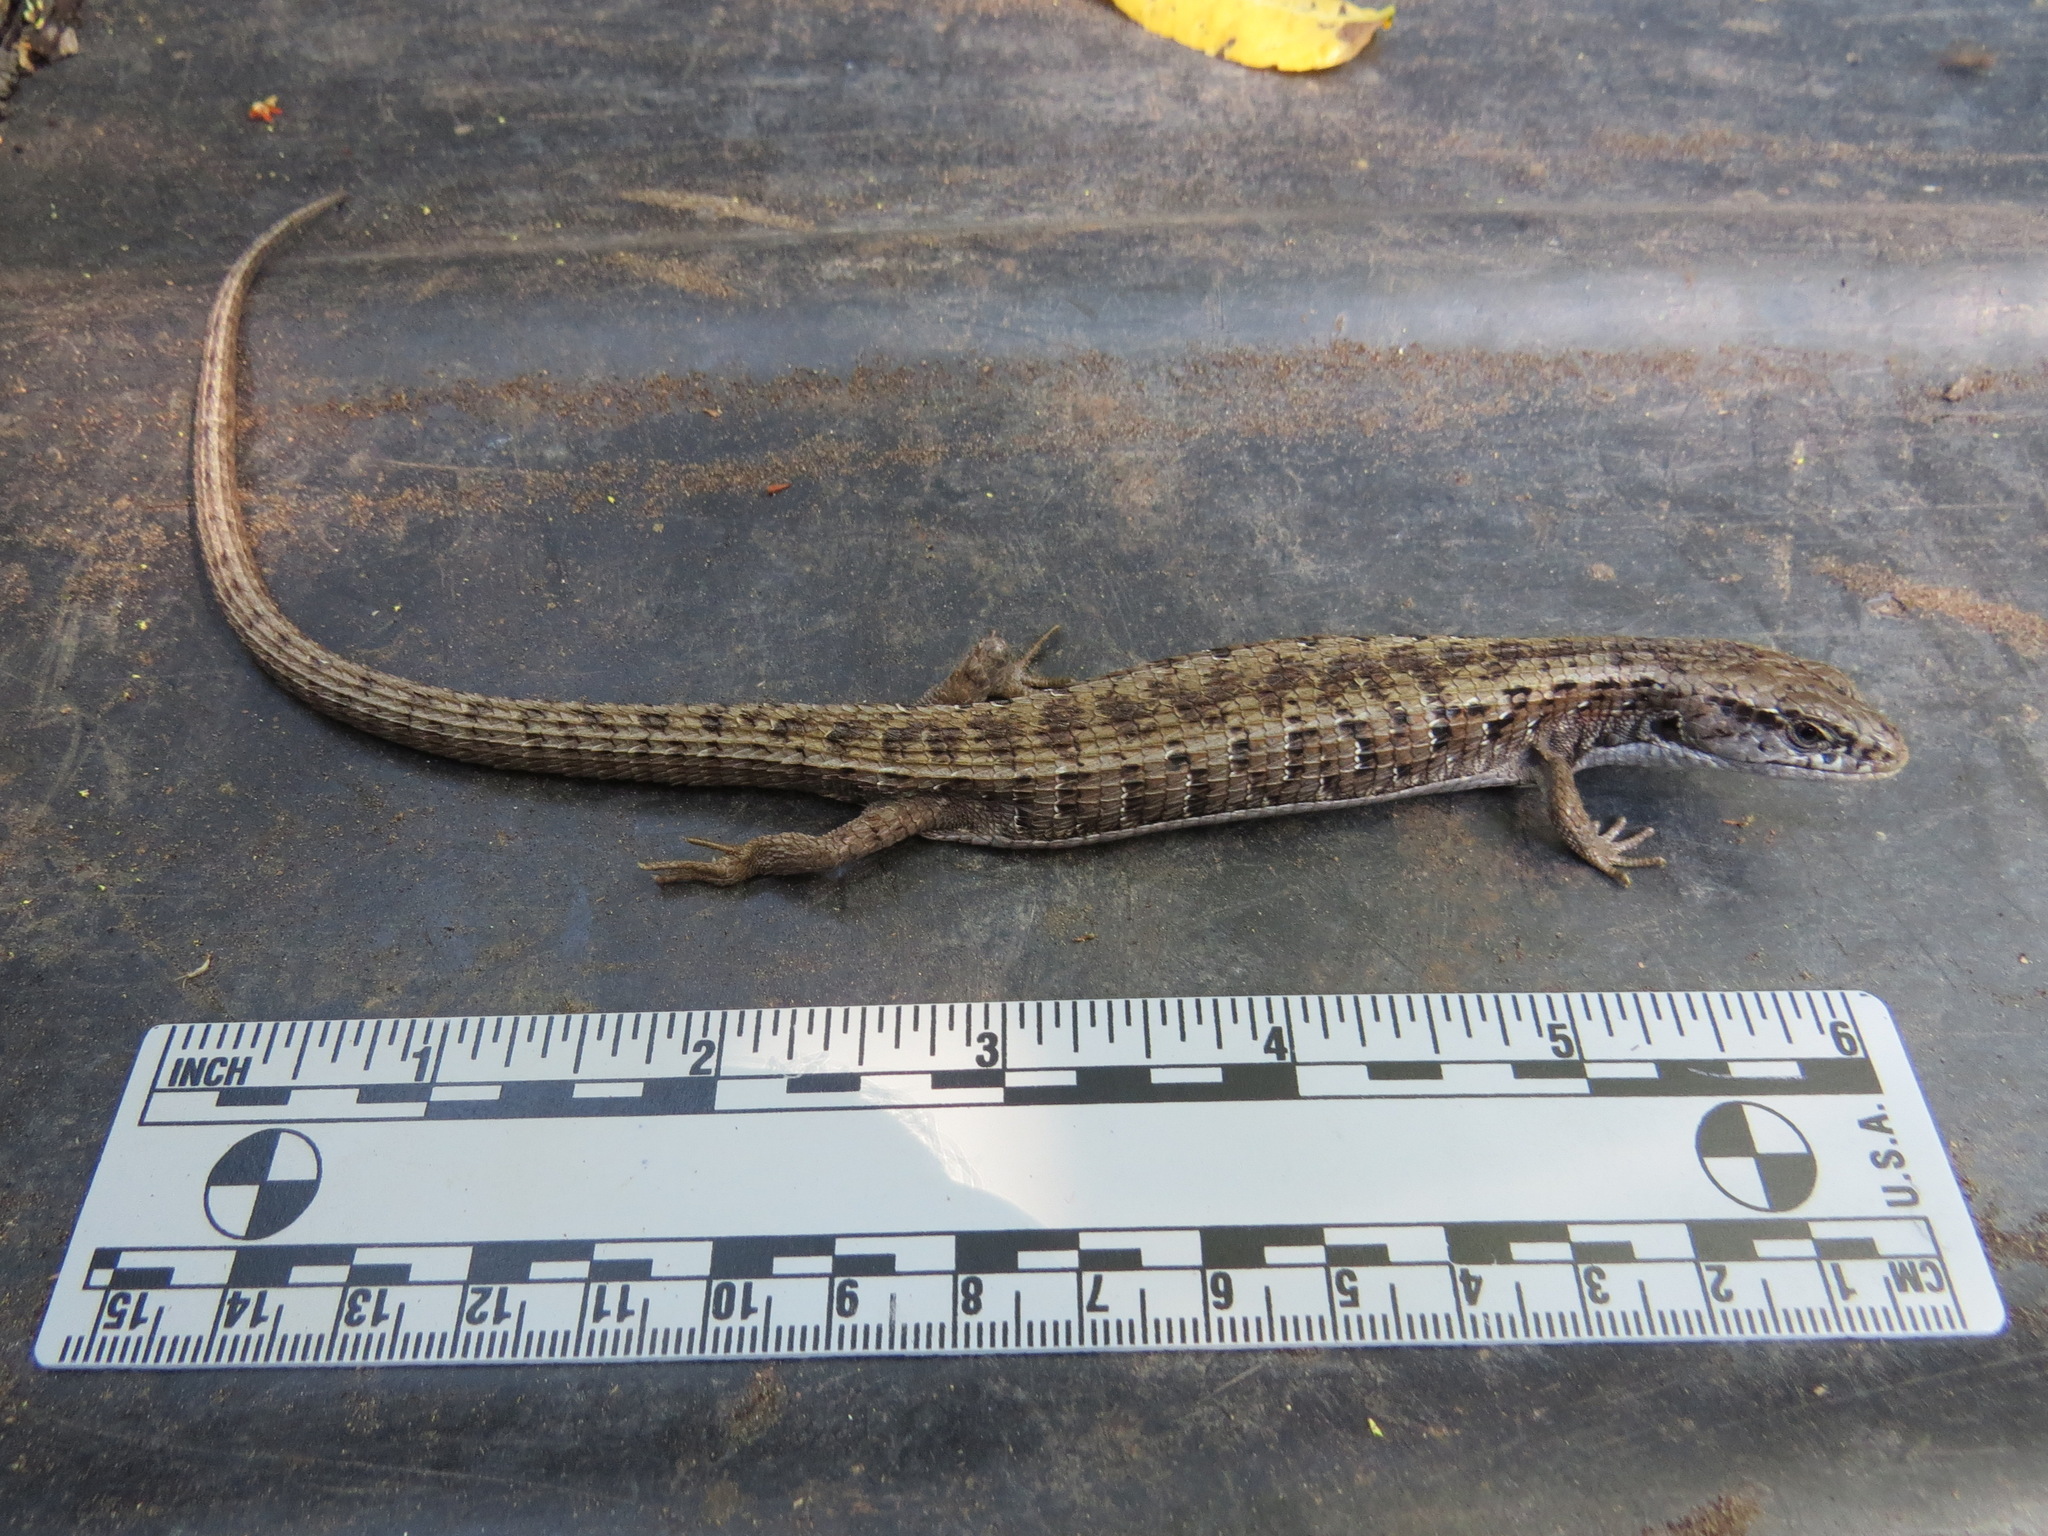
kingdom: Animalia
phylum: Chordata
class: Squamata
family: Anguidae
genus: Elgaria
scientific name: Elgaria coerulea
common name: Northern alligator lizard
